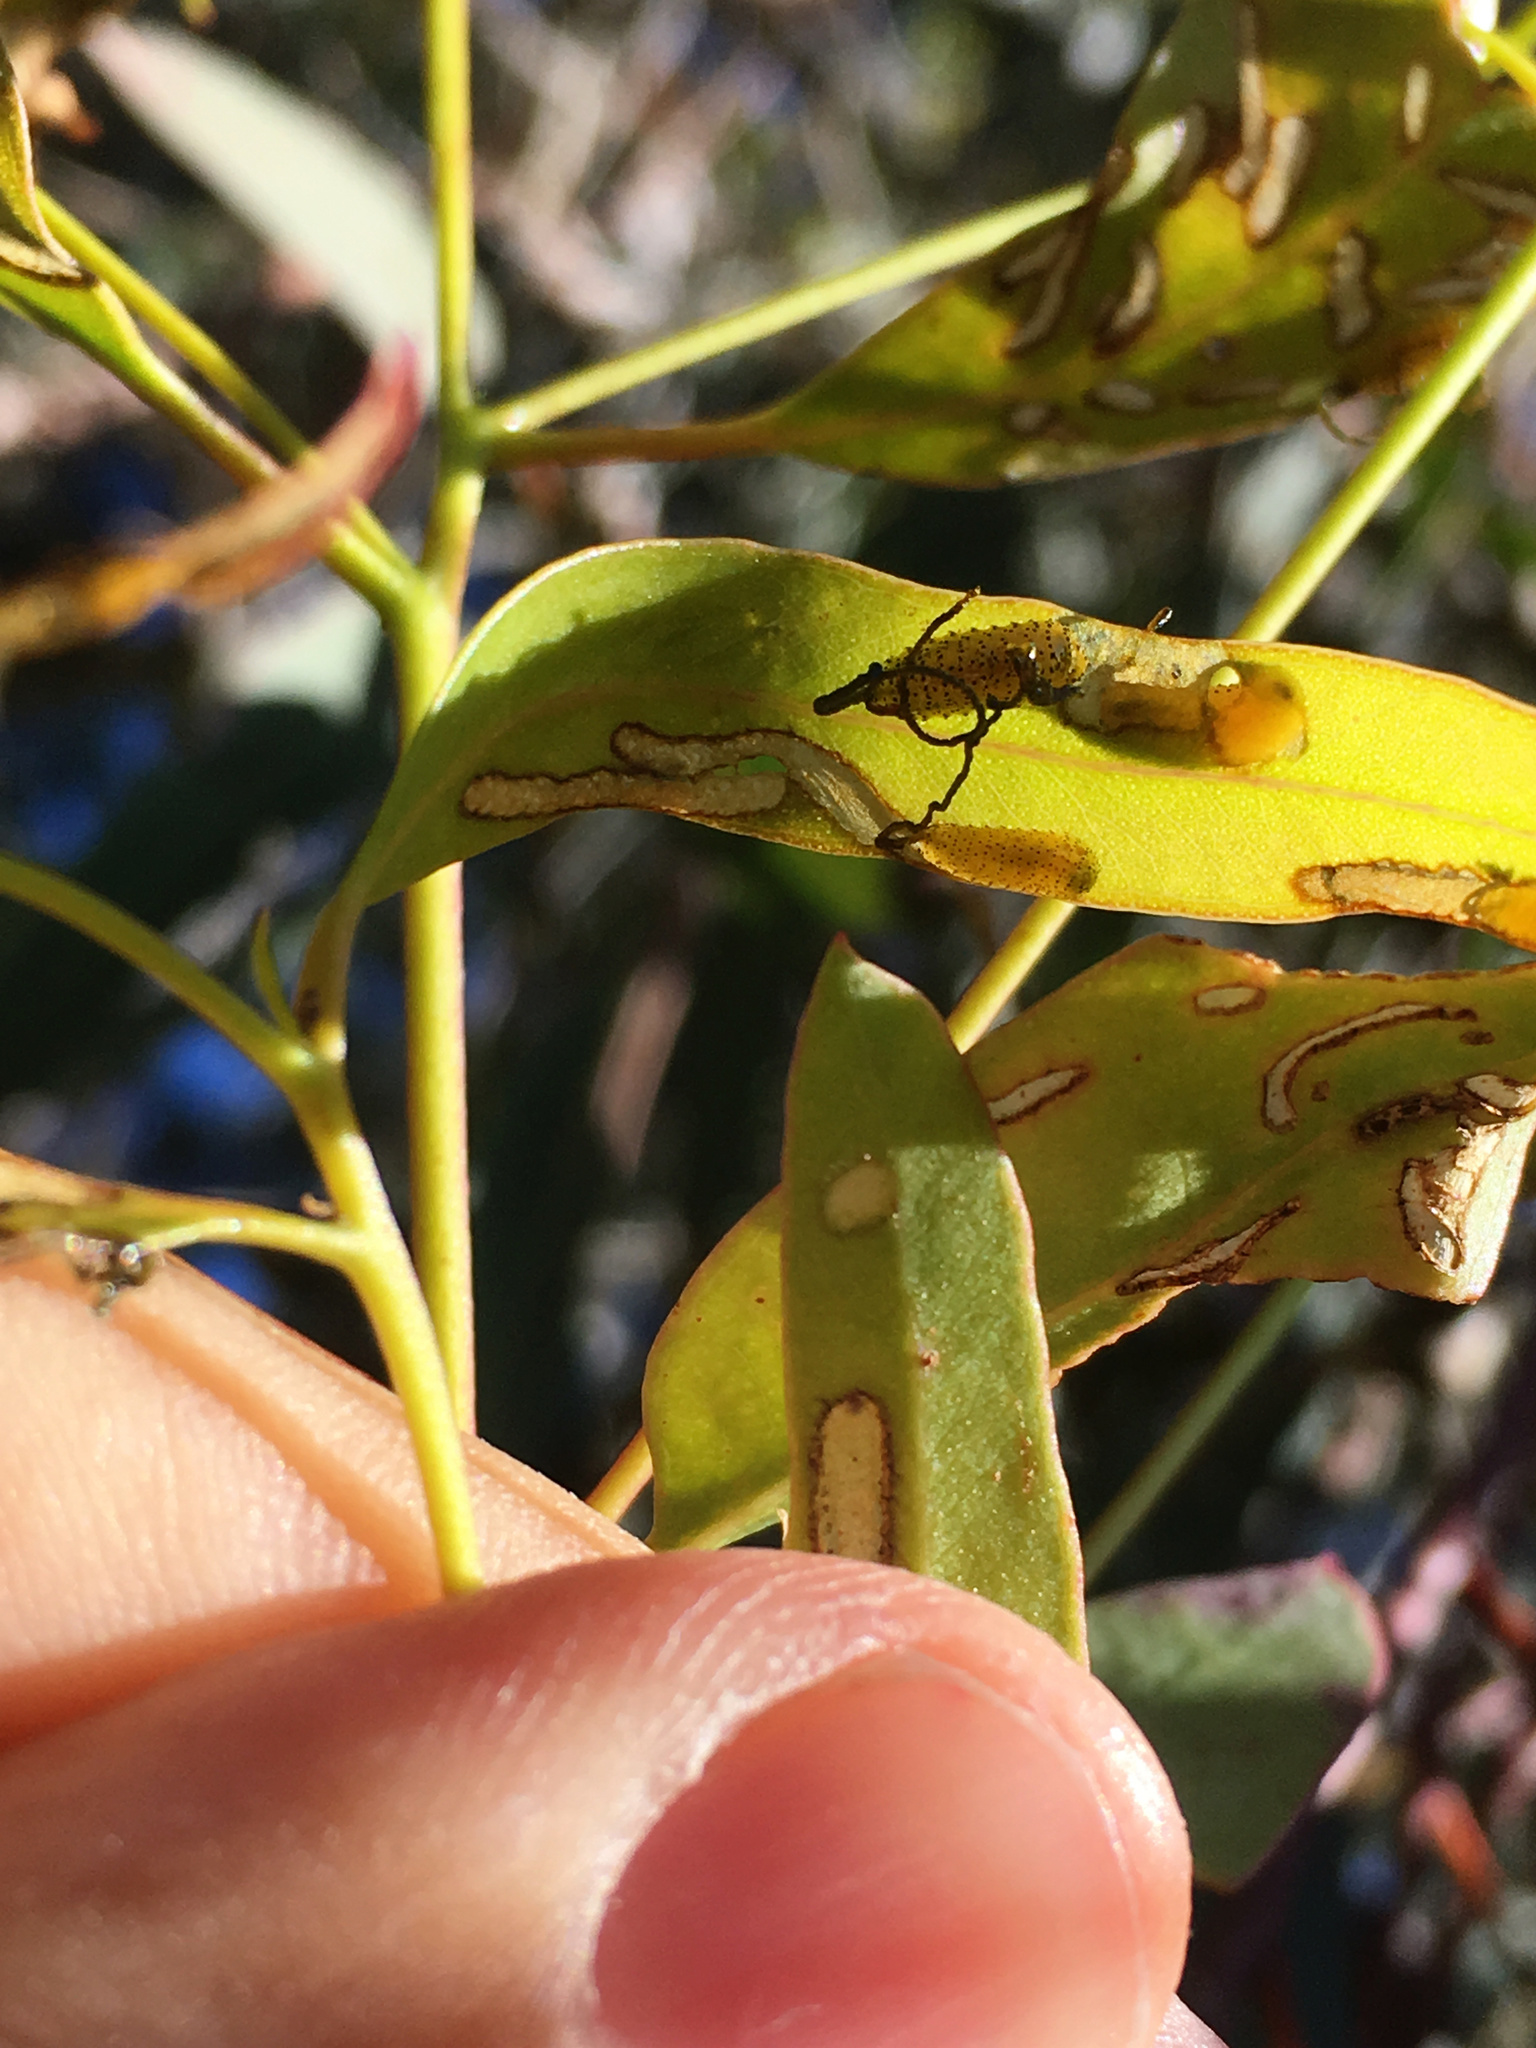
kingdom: Animalia
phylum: Arthropoda
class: Insecta
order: Coleoptera
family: Curculionidae
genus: Gonipterus
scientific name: Gonipterus platensis
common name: Eucalyptus snout beetle
